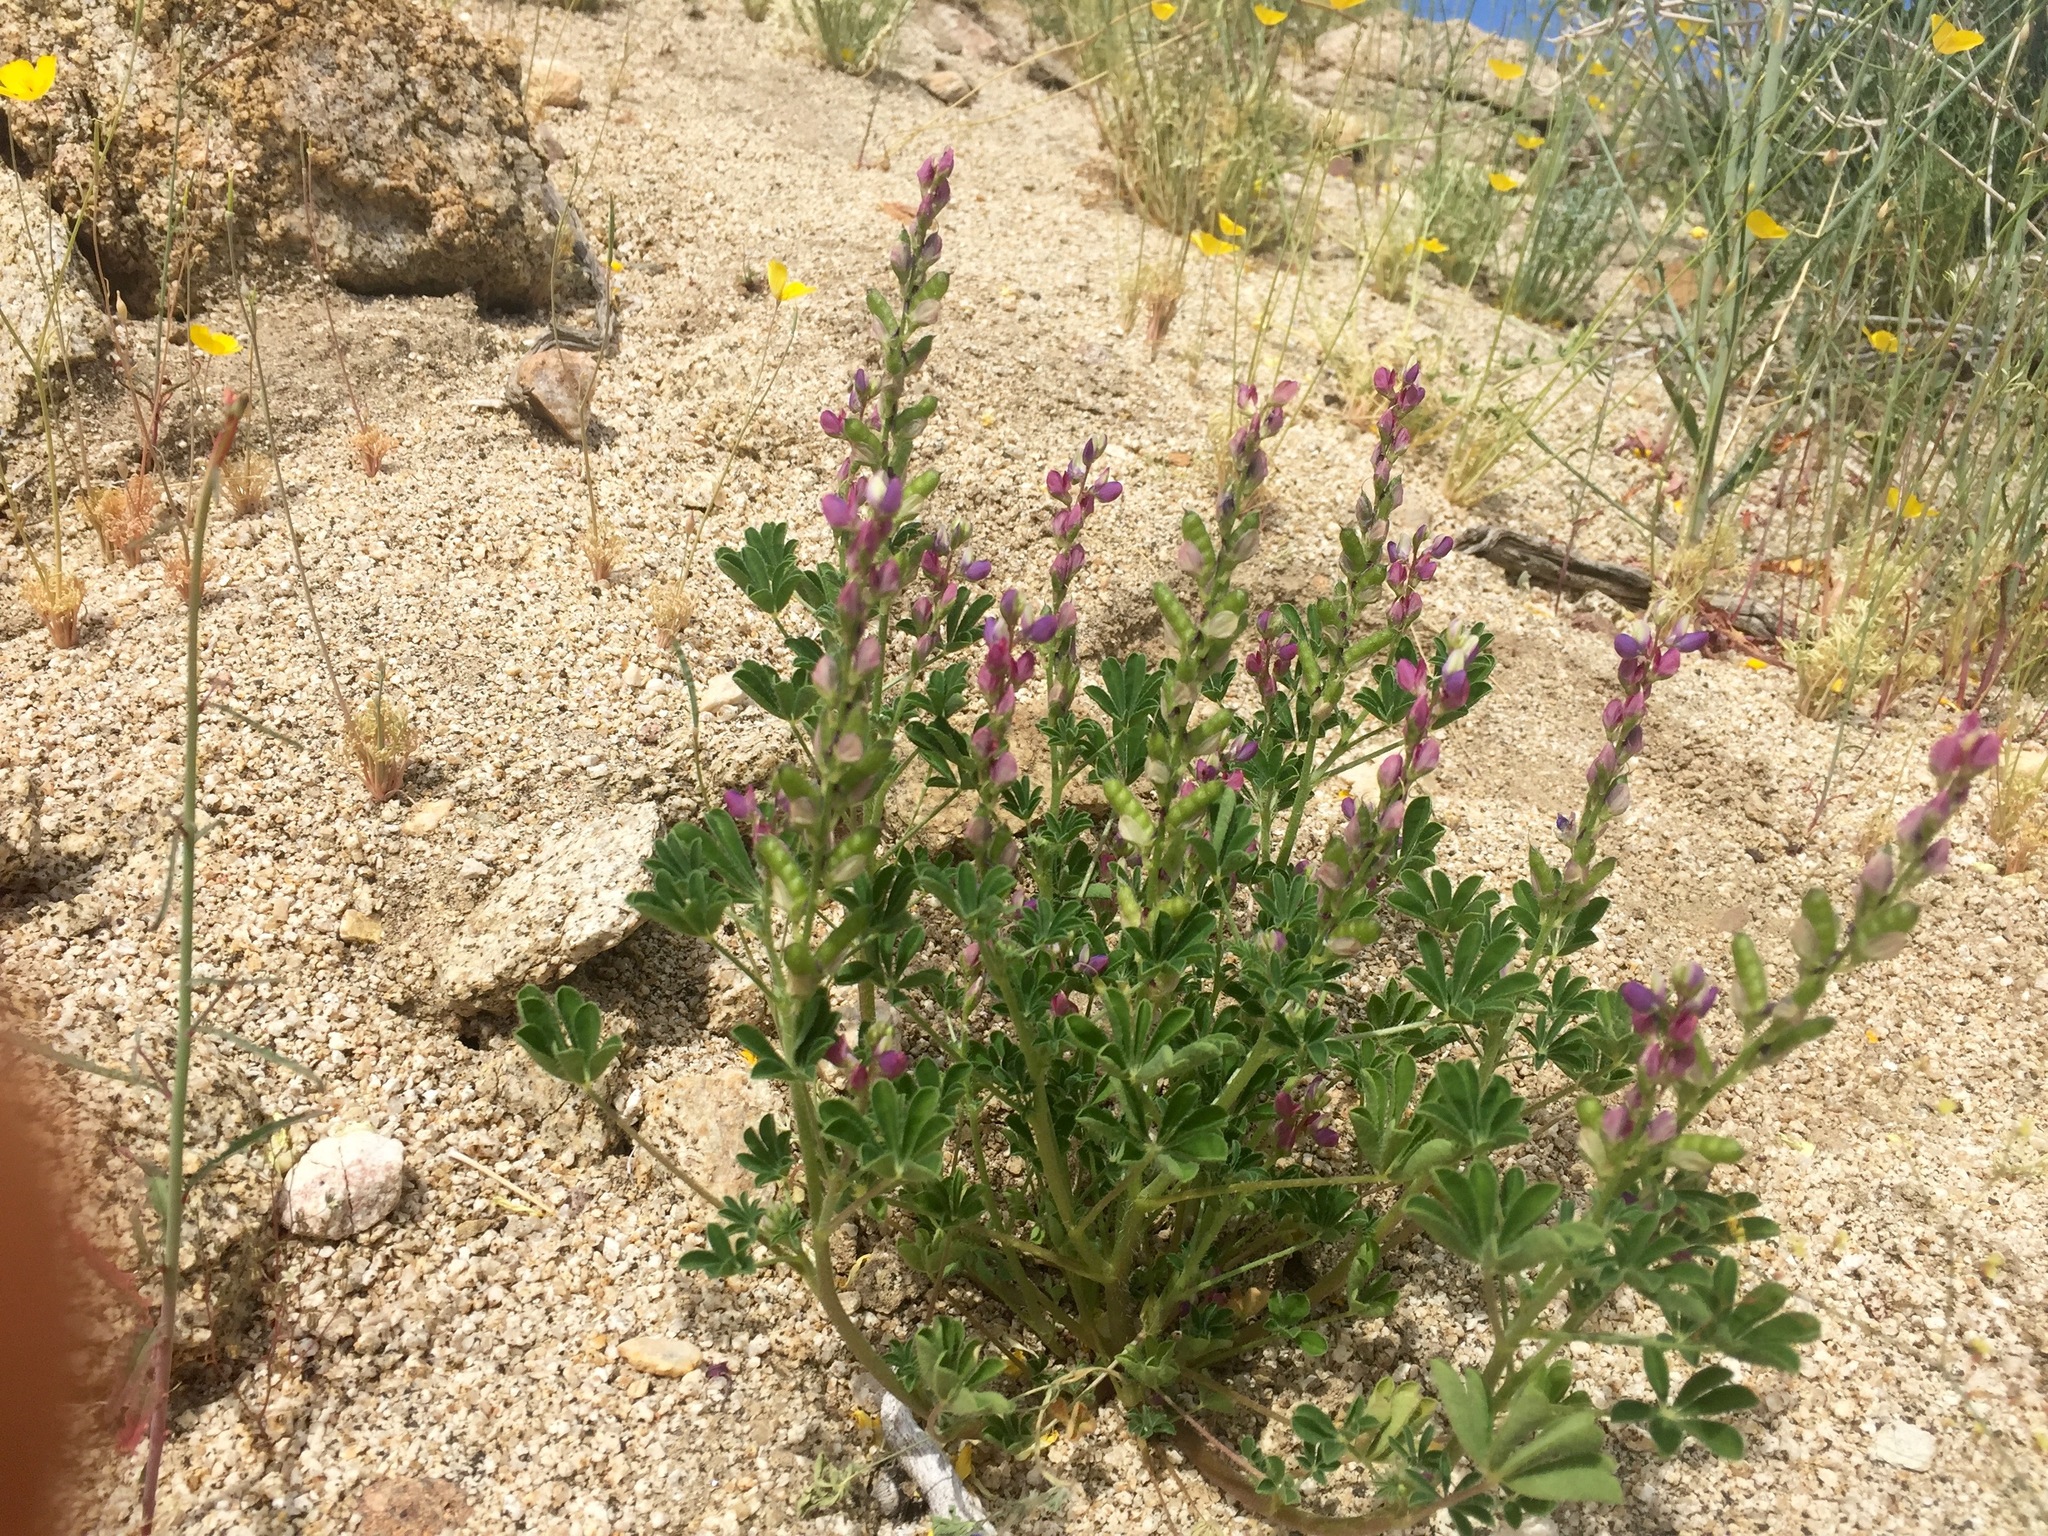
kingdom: Plantae
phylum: Tracheophyta
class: Magnoliopsida
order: Fabales
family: Fabaceae
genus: Lupinus
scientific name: Lupinus arizonicus
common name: Arizona lupine
